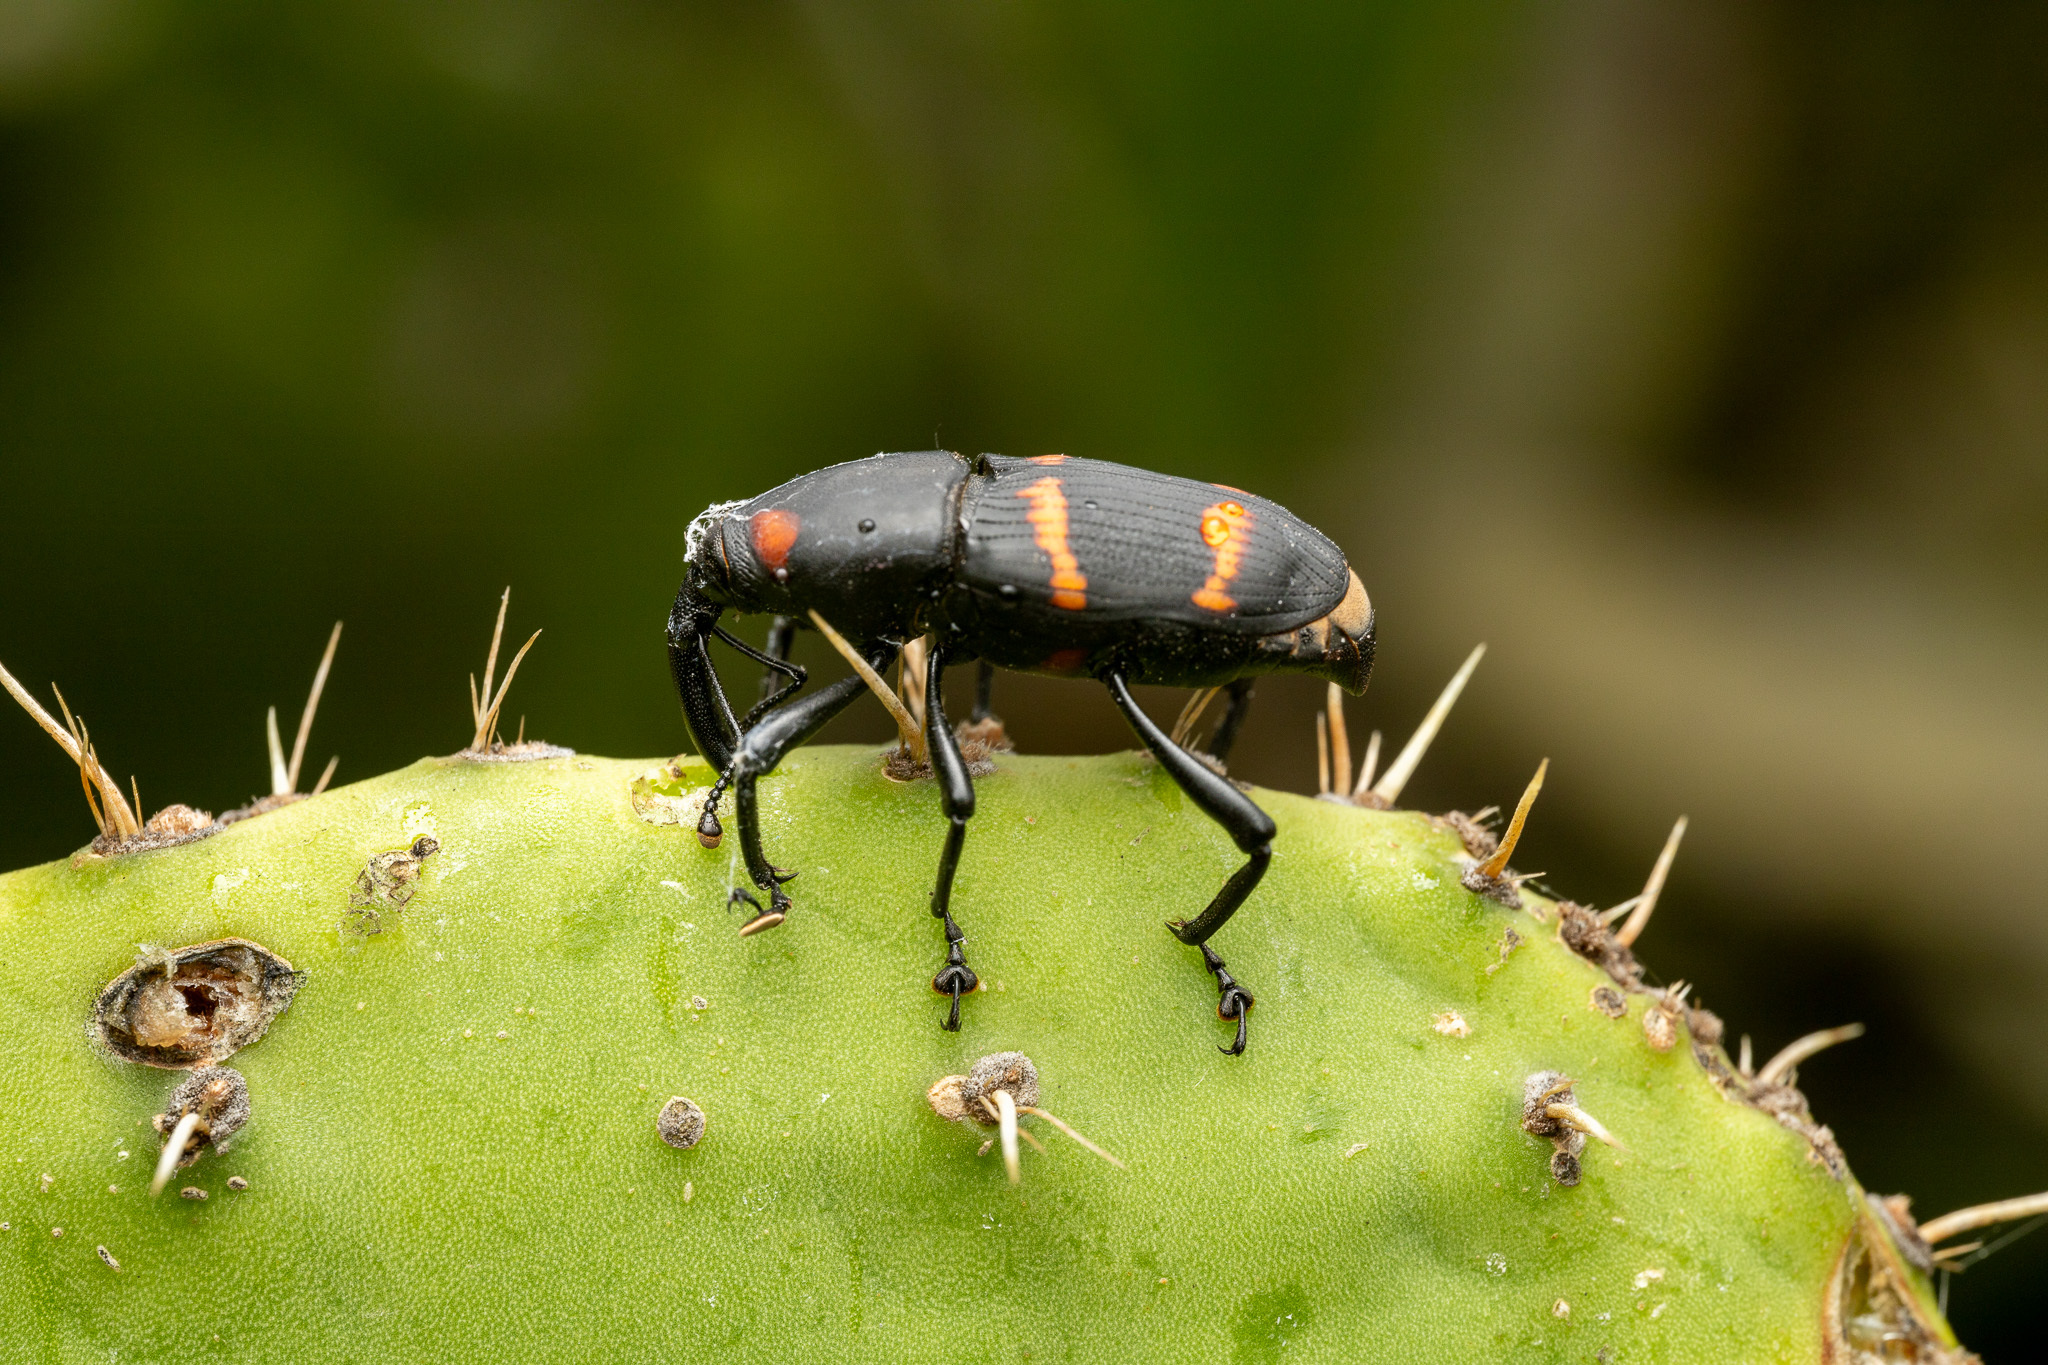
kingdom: Animalia
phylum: Arthropoda
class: Insecta
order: Coleoptera
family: Dryophthoridae
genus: Cactophagus
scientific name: Cactophagus spinolae
